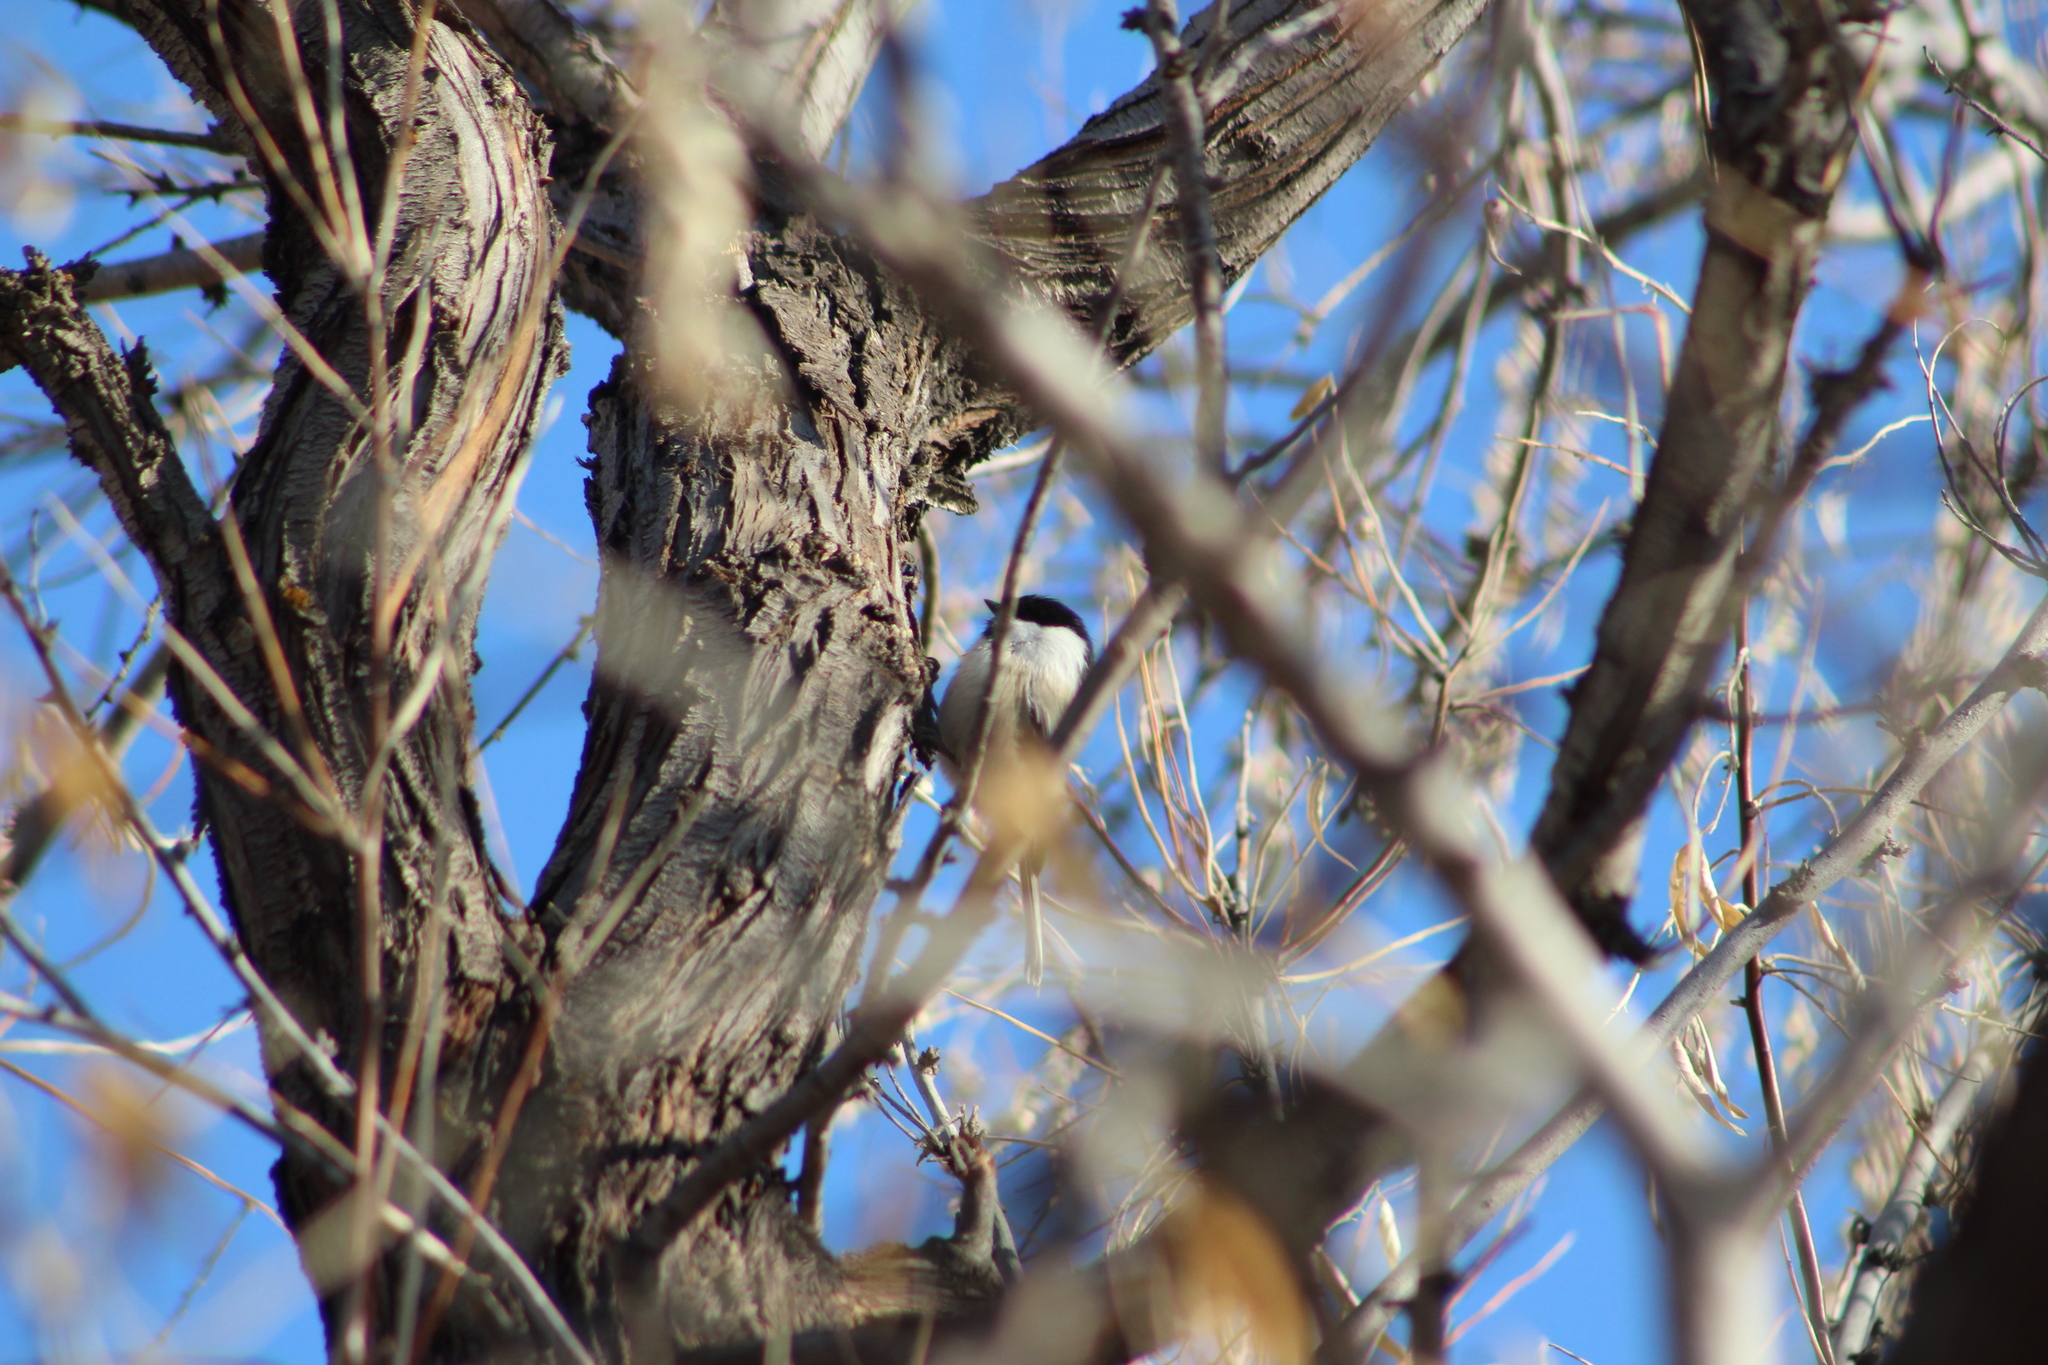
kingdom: Animalia
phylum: Chordata
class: Aves
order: Passeriformes
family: Paridae
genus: Poecile
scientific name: Poecile atricapillus
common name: Black-capped chickadee
